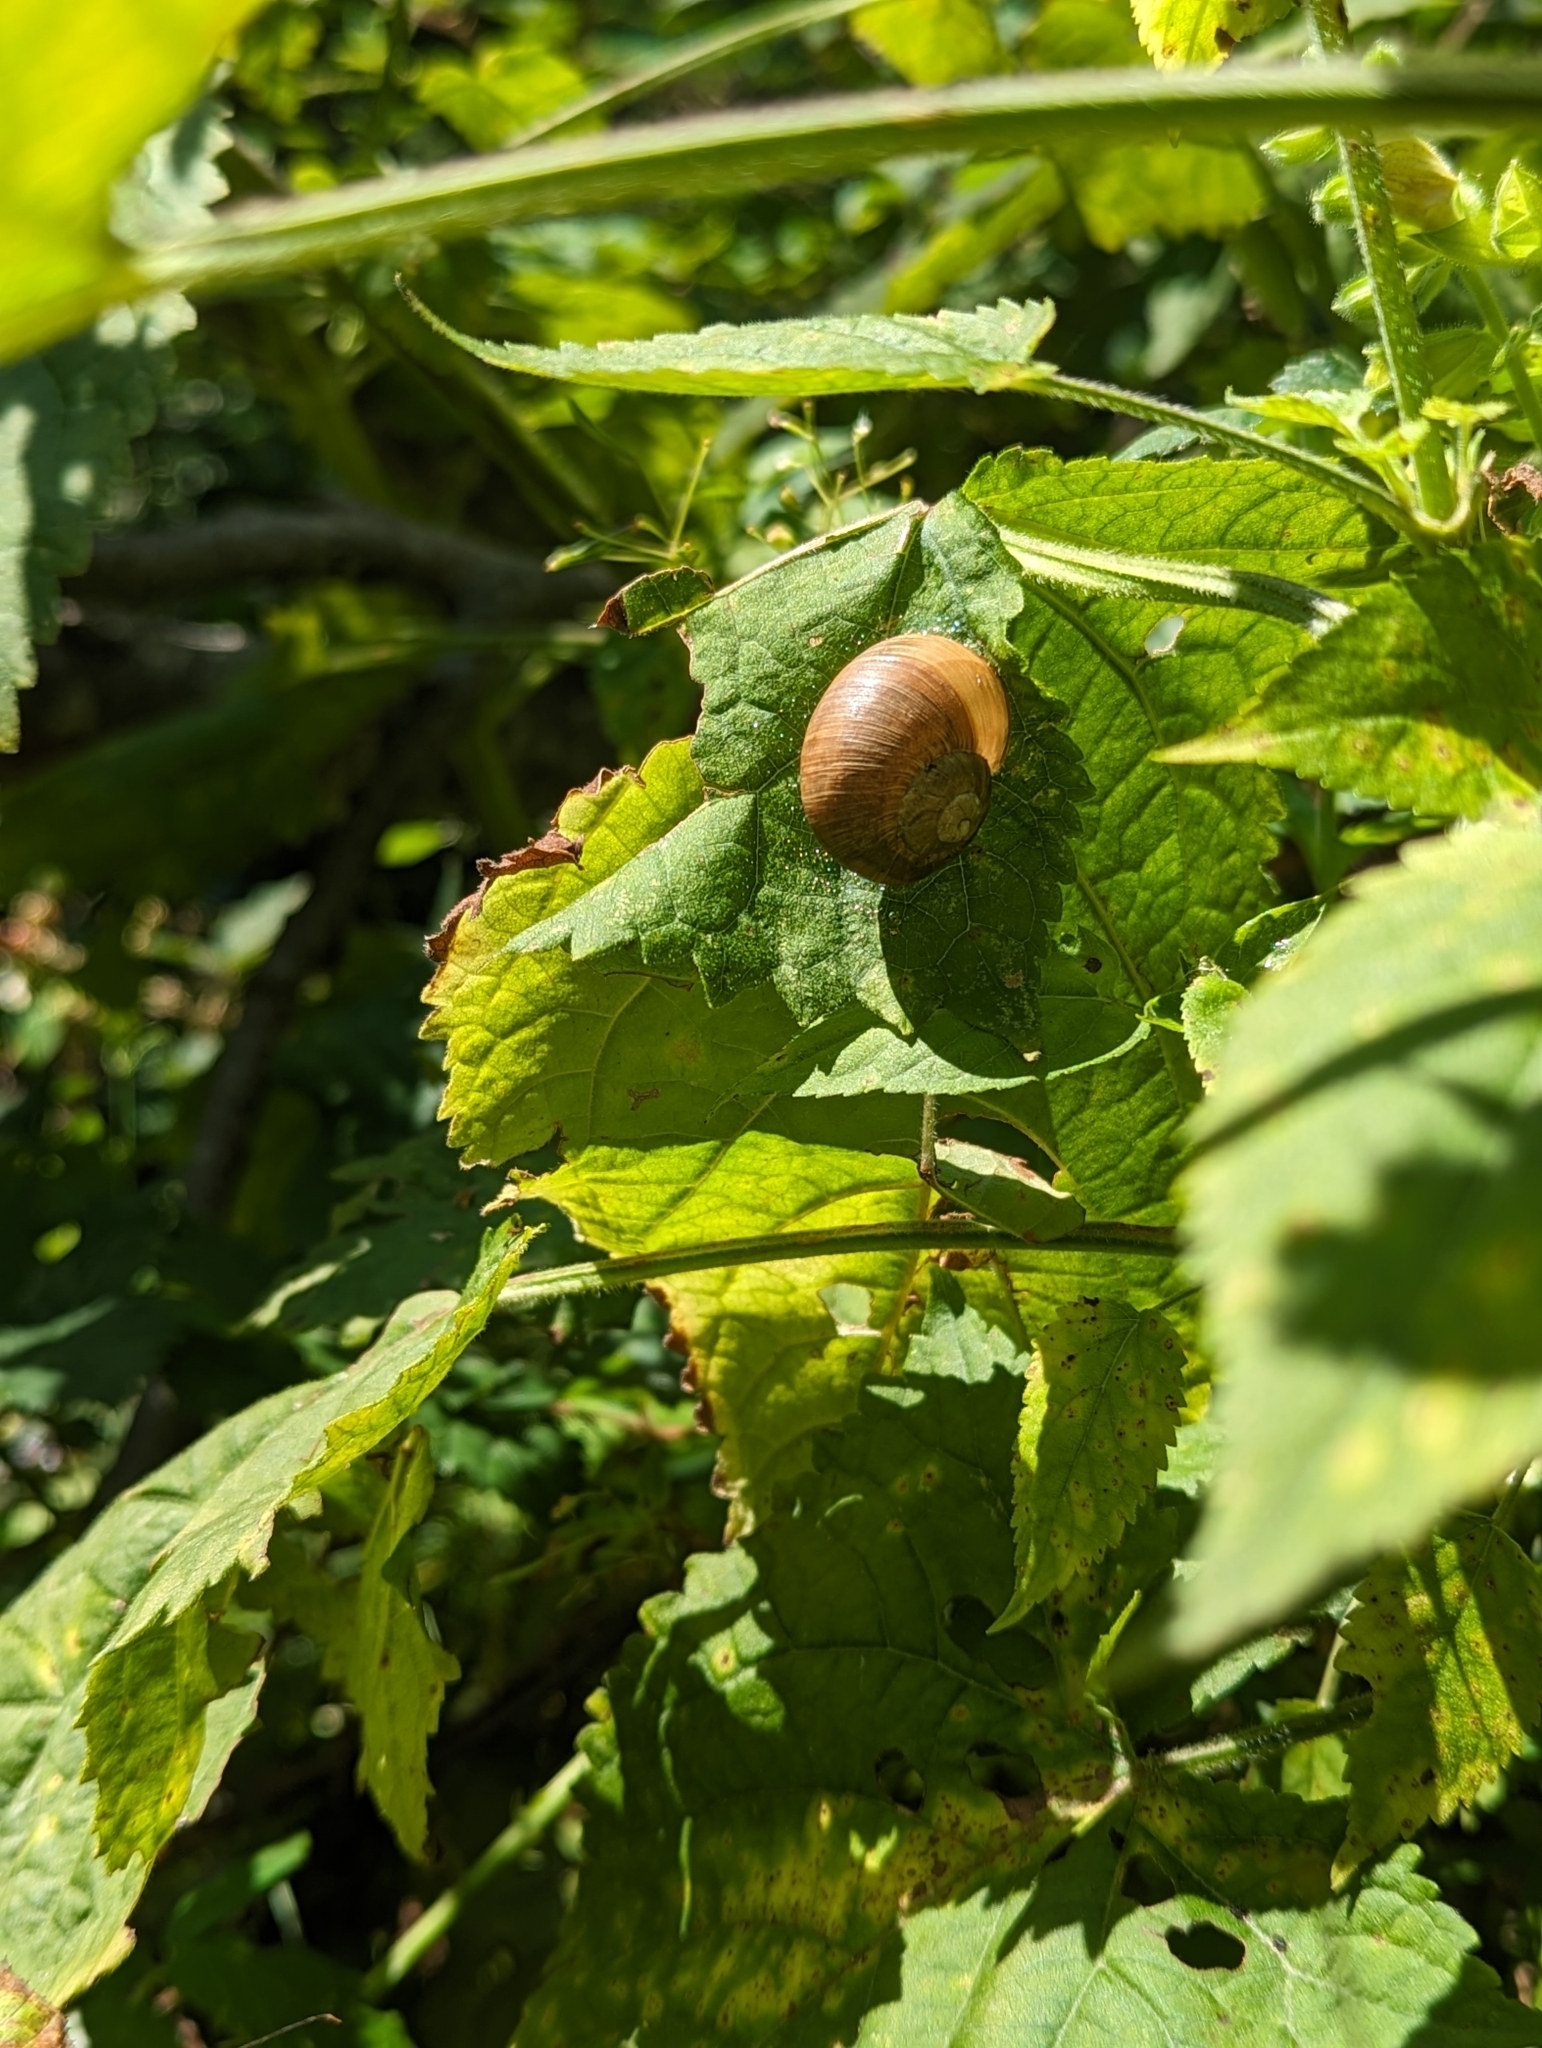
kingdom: Animalia
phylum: Mollusca
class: Gastropoda
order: Stylommatophora
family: Helicidae
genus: Helix
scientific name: Helix pomatia
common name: Roman snail
